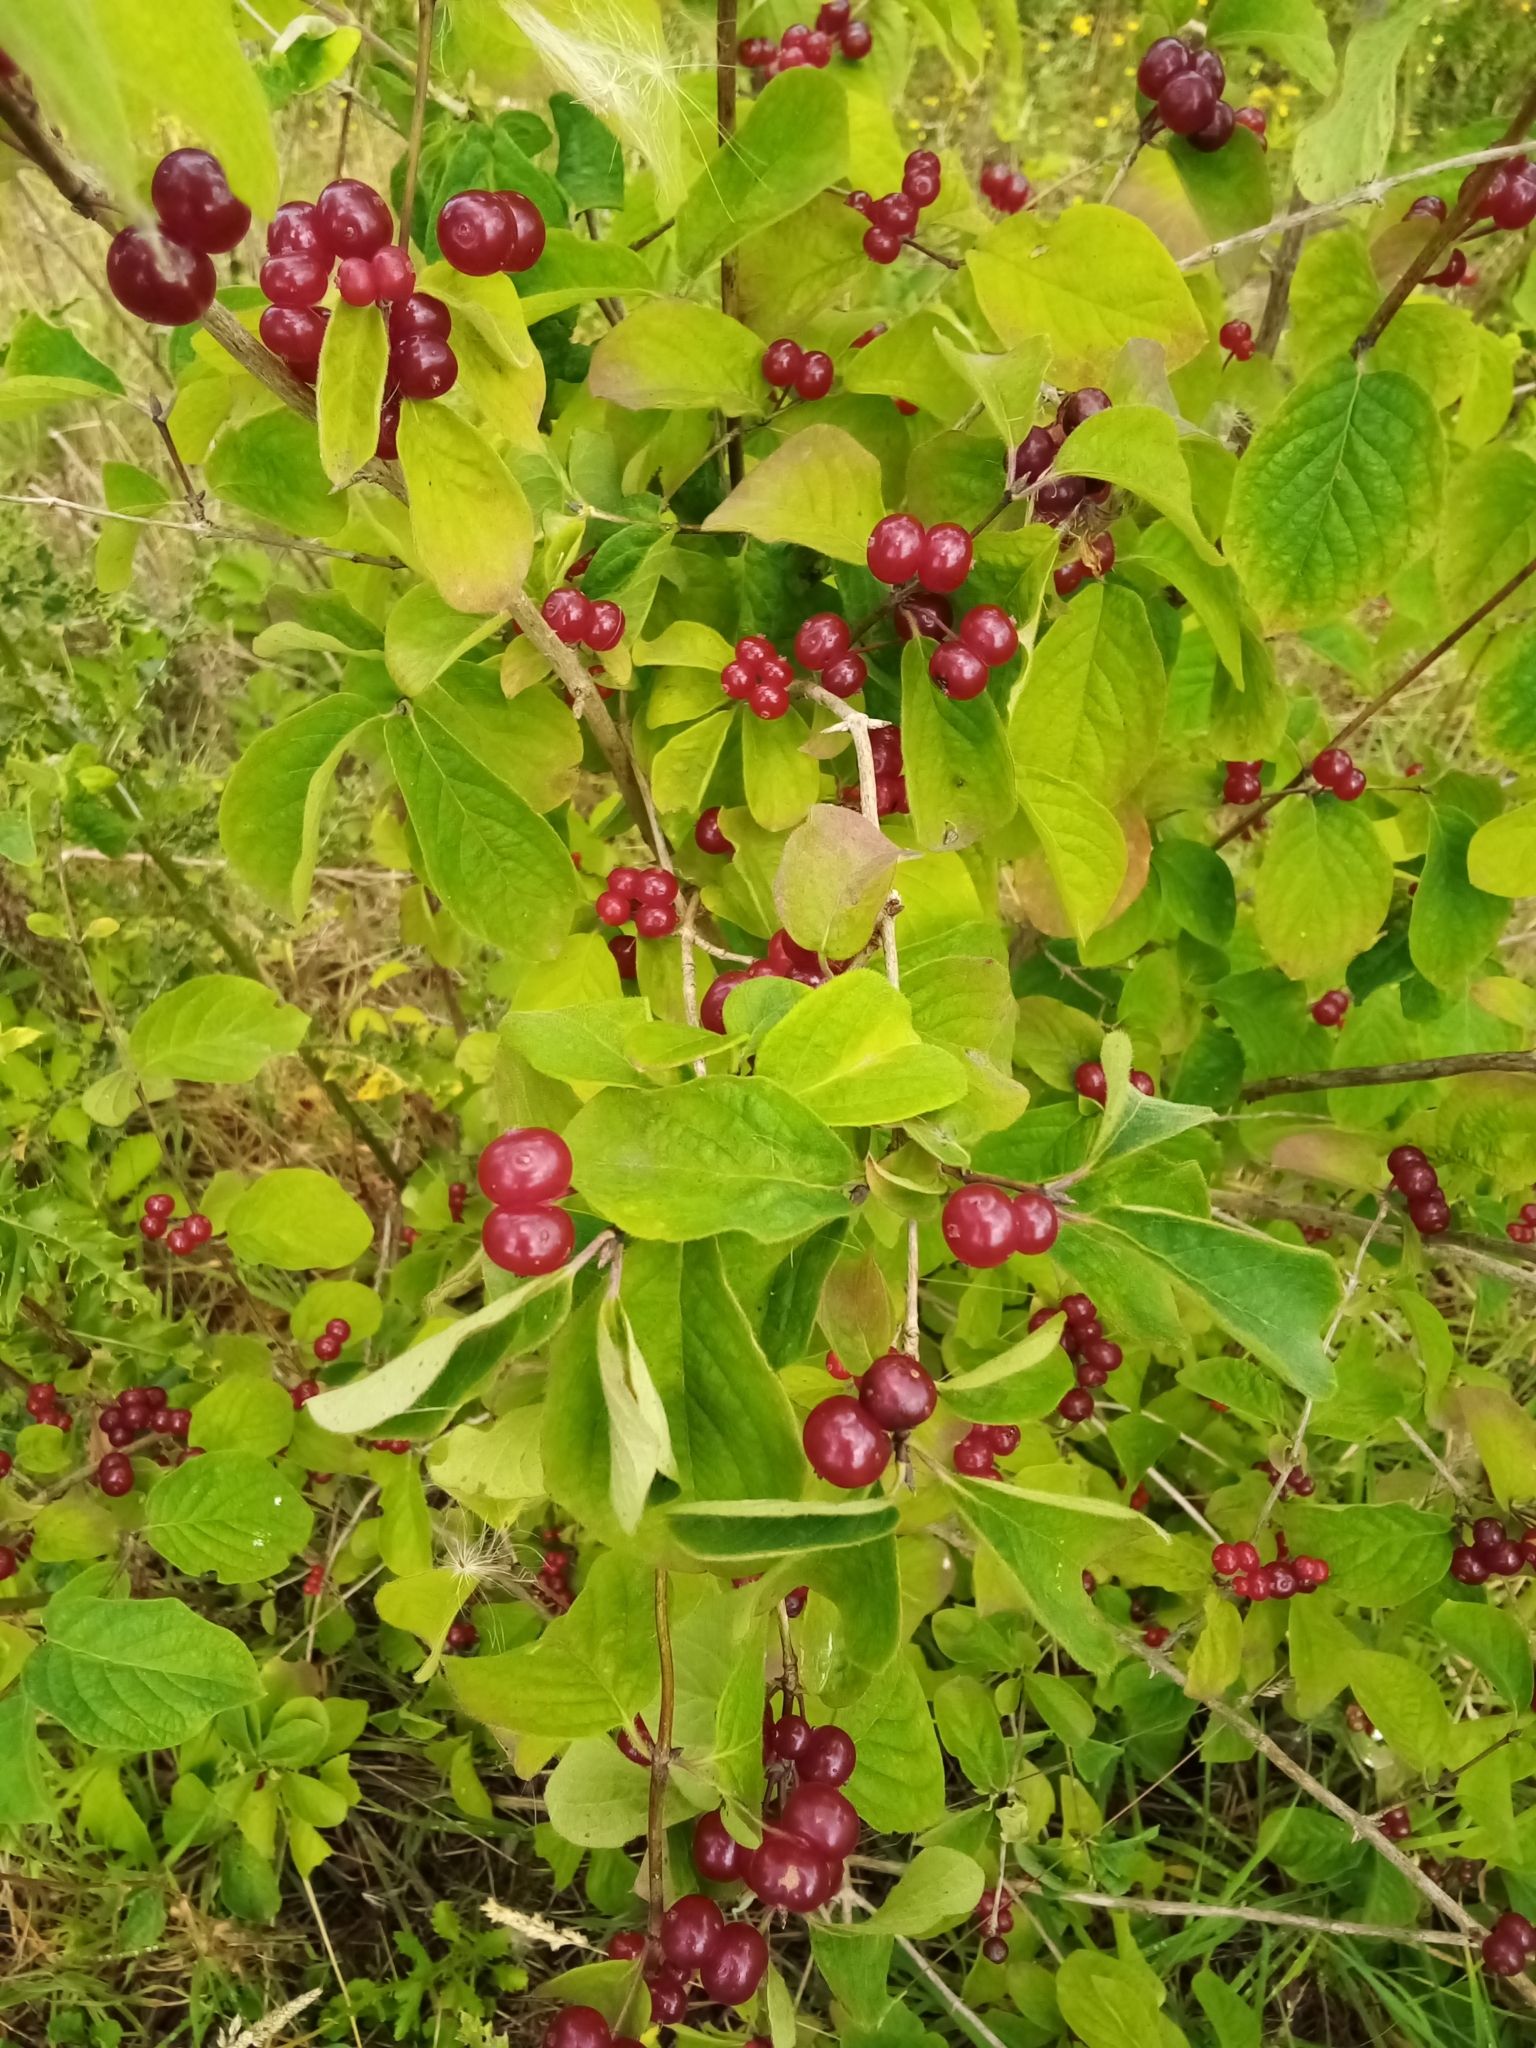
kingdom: Plantae
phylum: Tracheophyta
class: Magnoliopsida
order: Dipsacales
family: Caprifoliaceae
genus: Lonicera
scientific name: Lonicera xylosteum
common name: Fly honeysuckle
